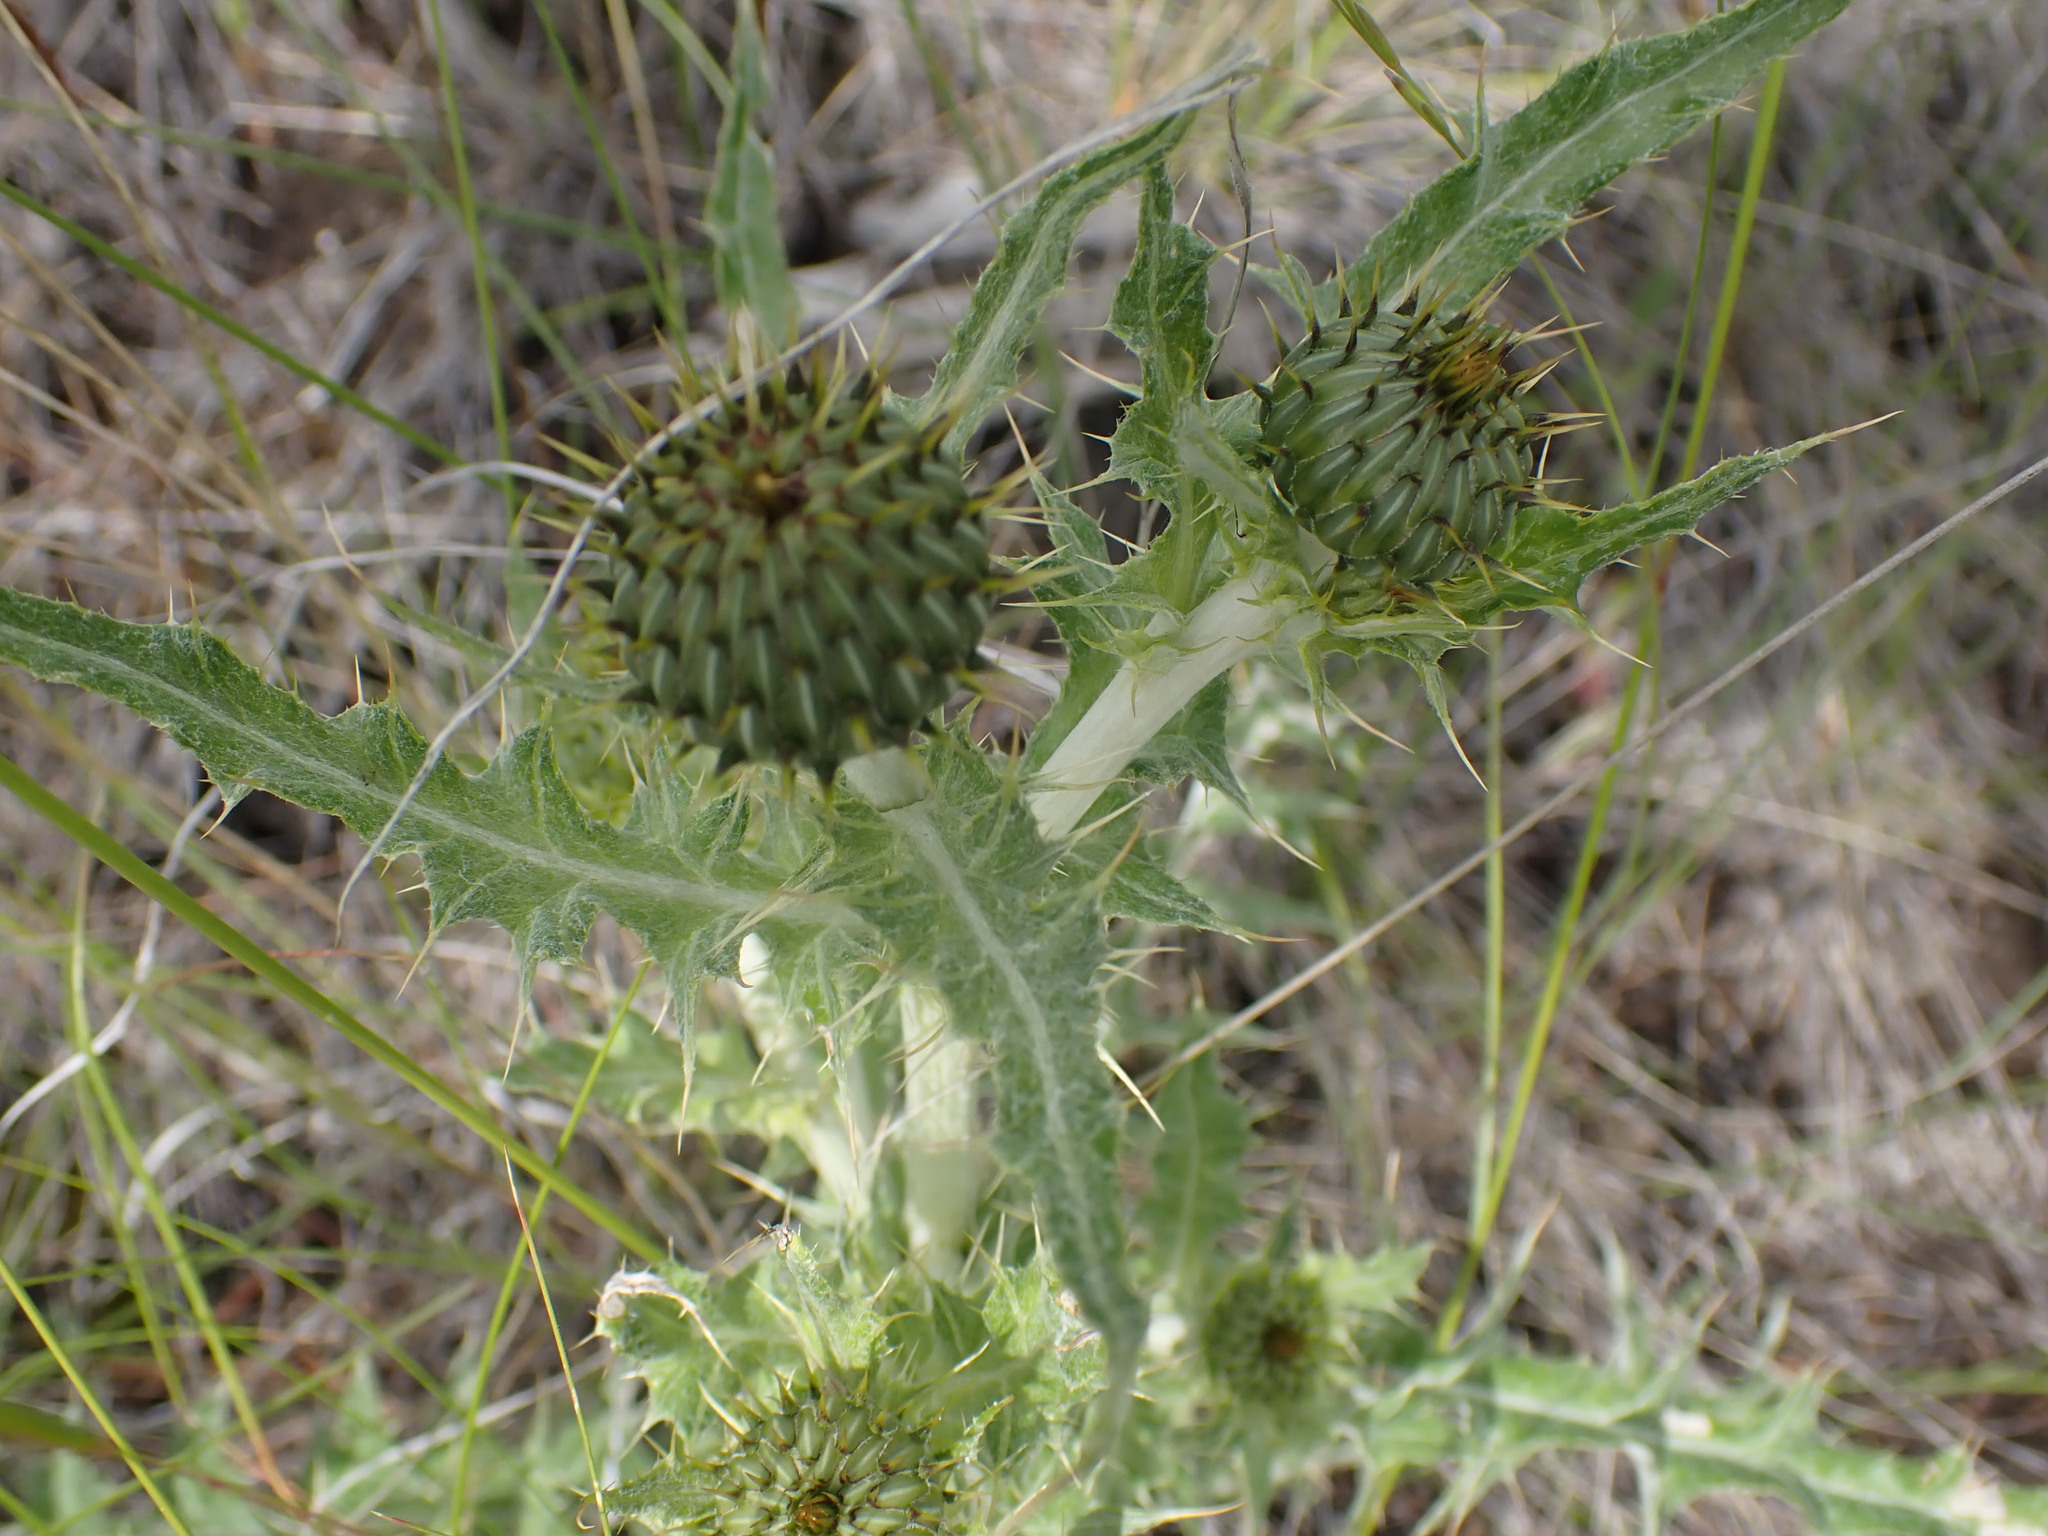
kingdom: Plantae
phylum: Tracheophyta
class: Magnoliopsida
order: Asterales
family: Asteraceae
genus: Cirsium
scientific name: Cirsium undulatum
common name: Pasture thistle
